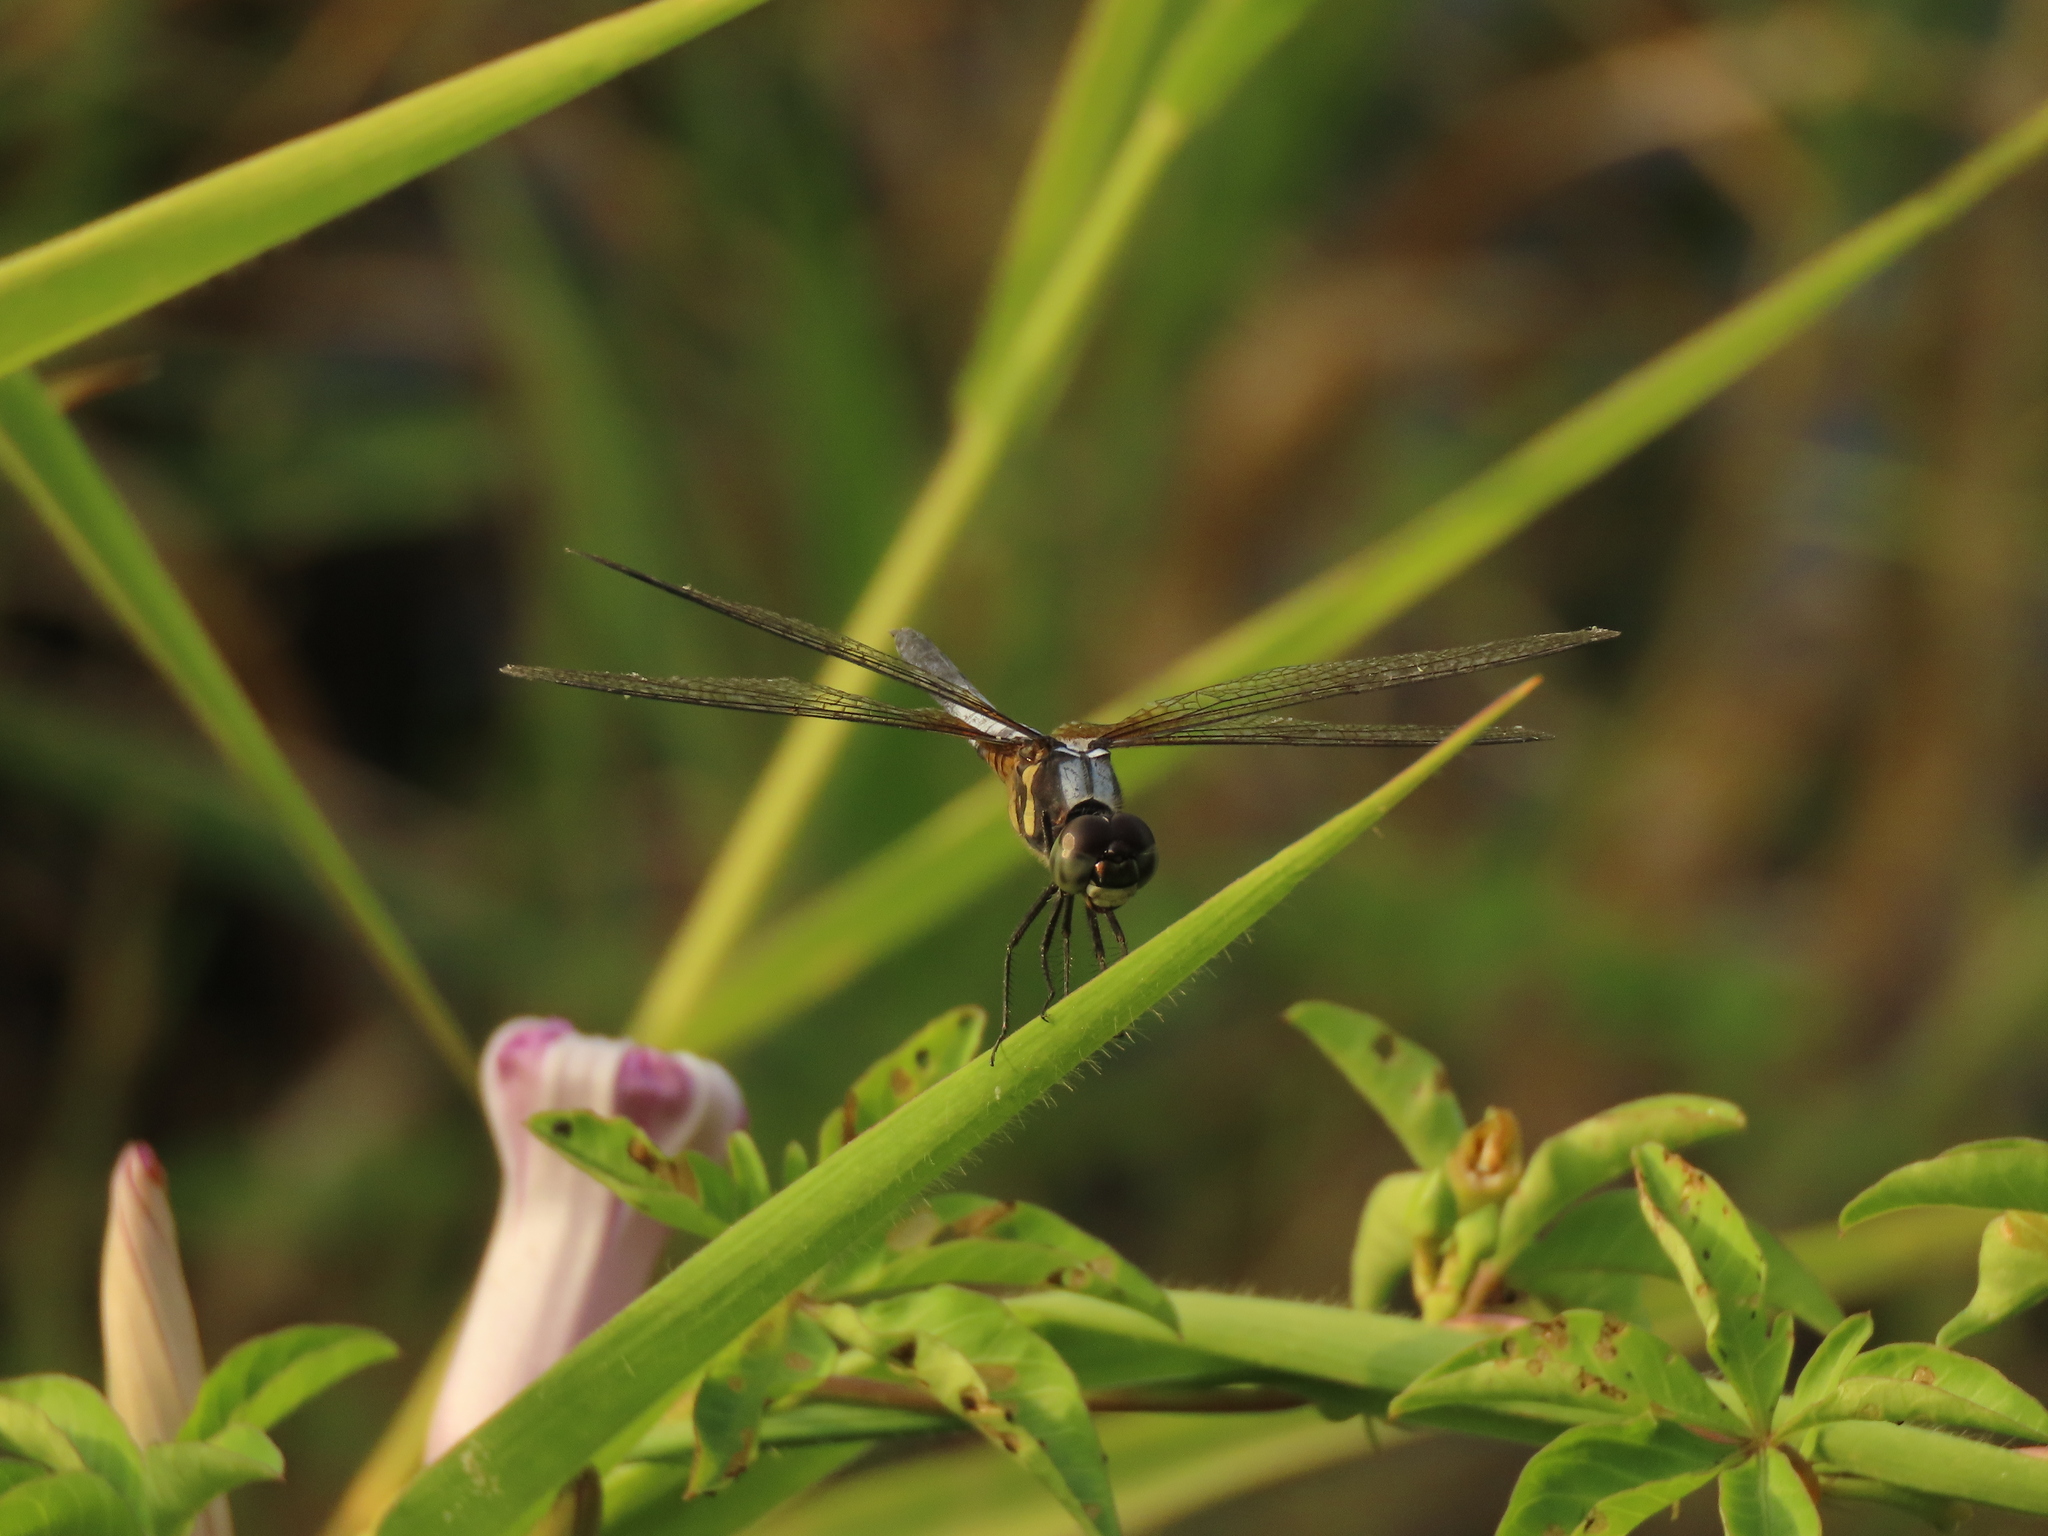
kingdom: Animalia
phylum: Arthropoda
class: Insecta
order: Odonata
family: Libellulidae
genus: Brachydiplax
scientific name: Brachydiplax chalybea
